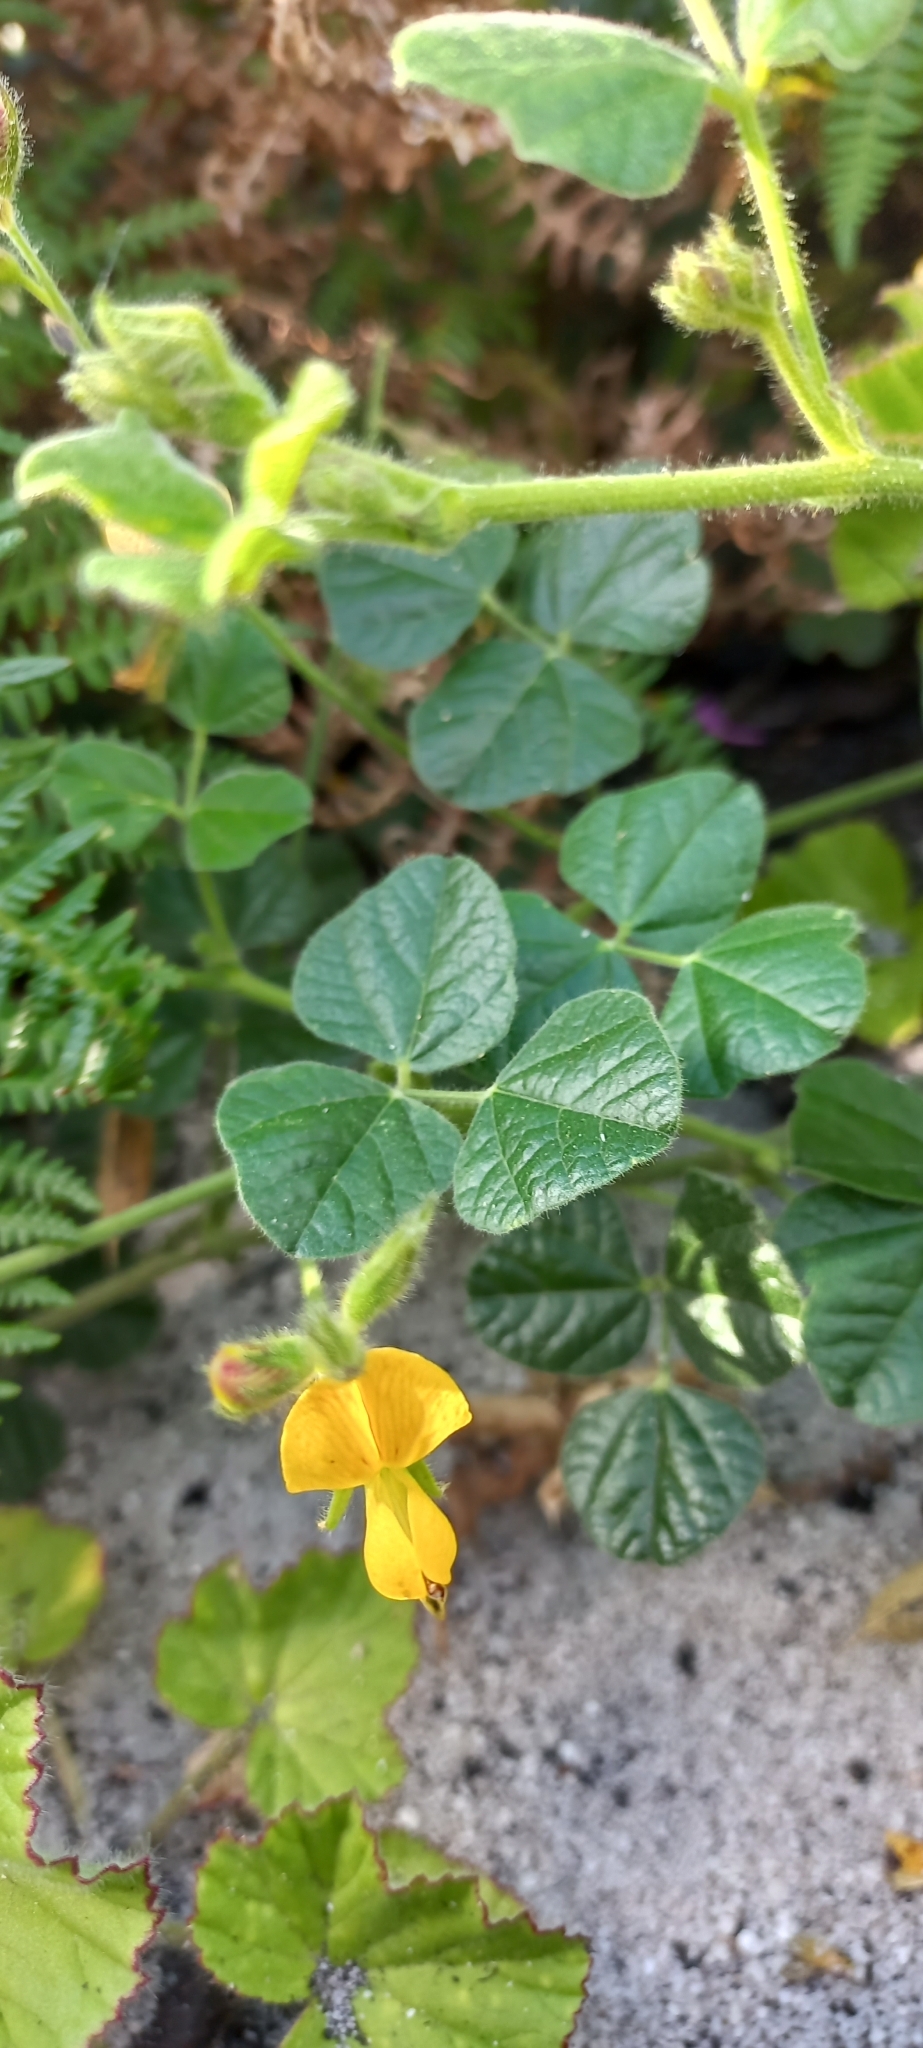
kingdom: Plantae
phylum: Tracheophyta
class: Magnoliopsida
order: Fabales
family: Fabaceae
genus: Bolusafra
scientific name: Bolusafra bituminosa
